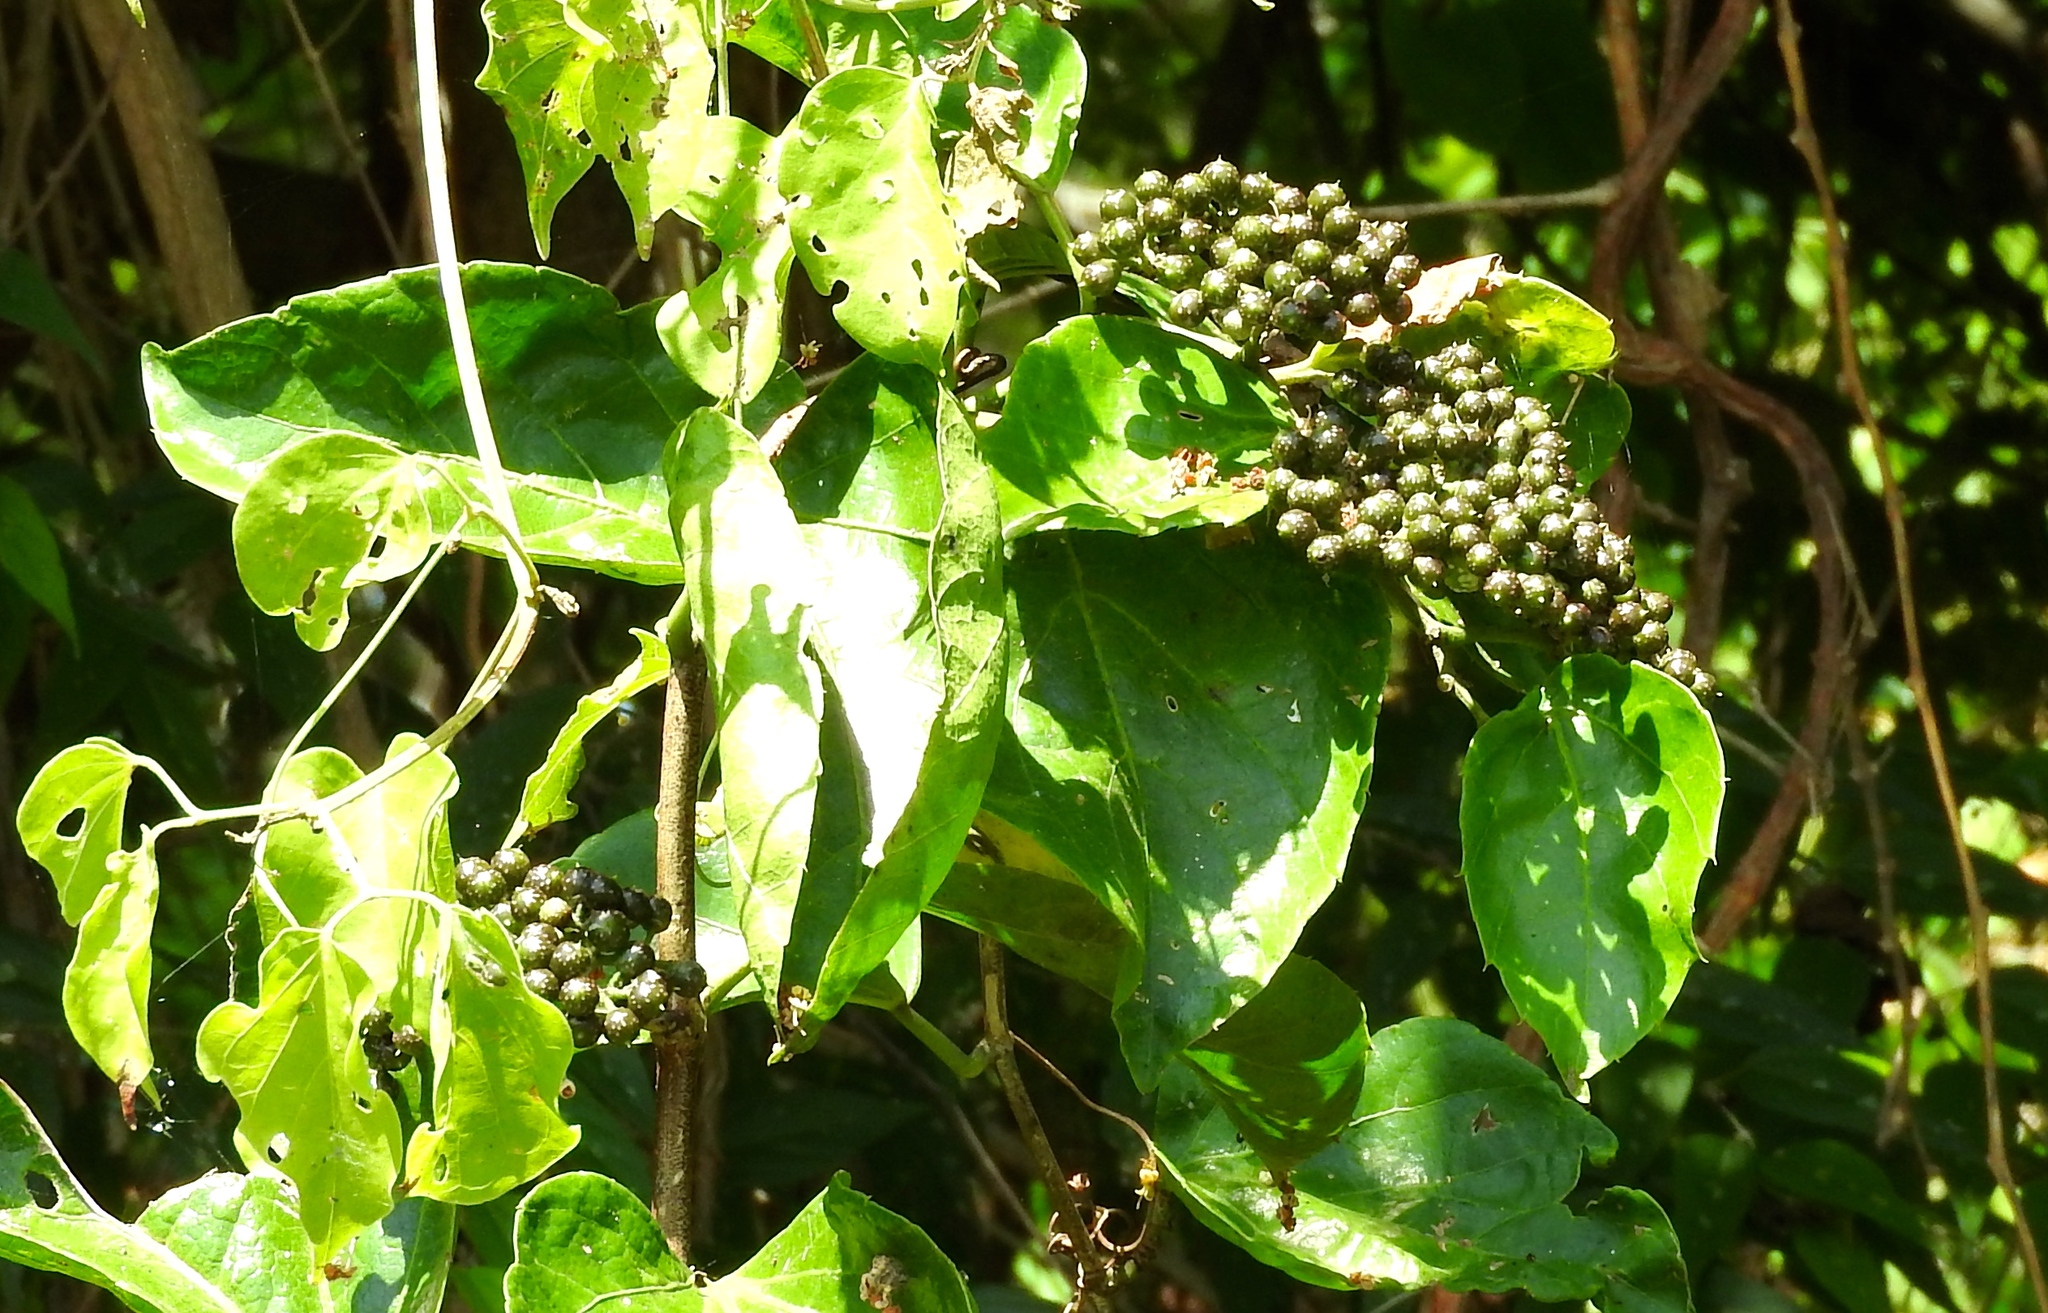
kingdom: Plantae
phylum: Tracheophyta
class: Magnoliopsida
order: Vitales
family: Vitaceae
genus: Cissus
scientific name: Cissus verticillata
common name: Princess vine
